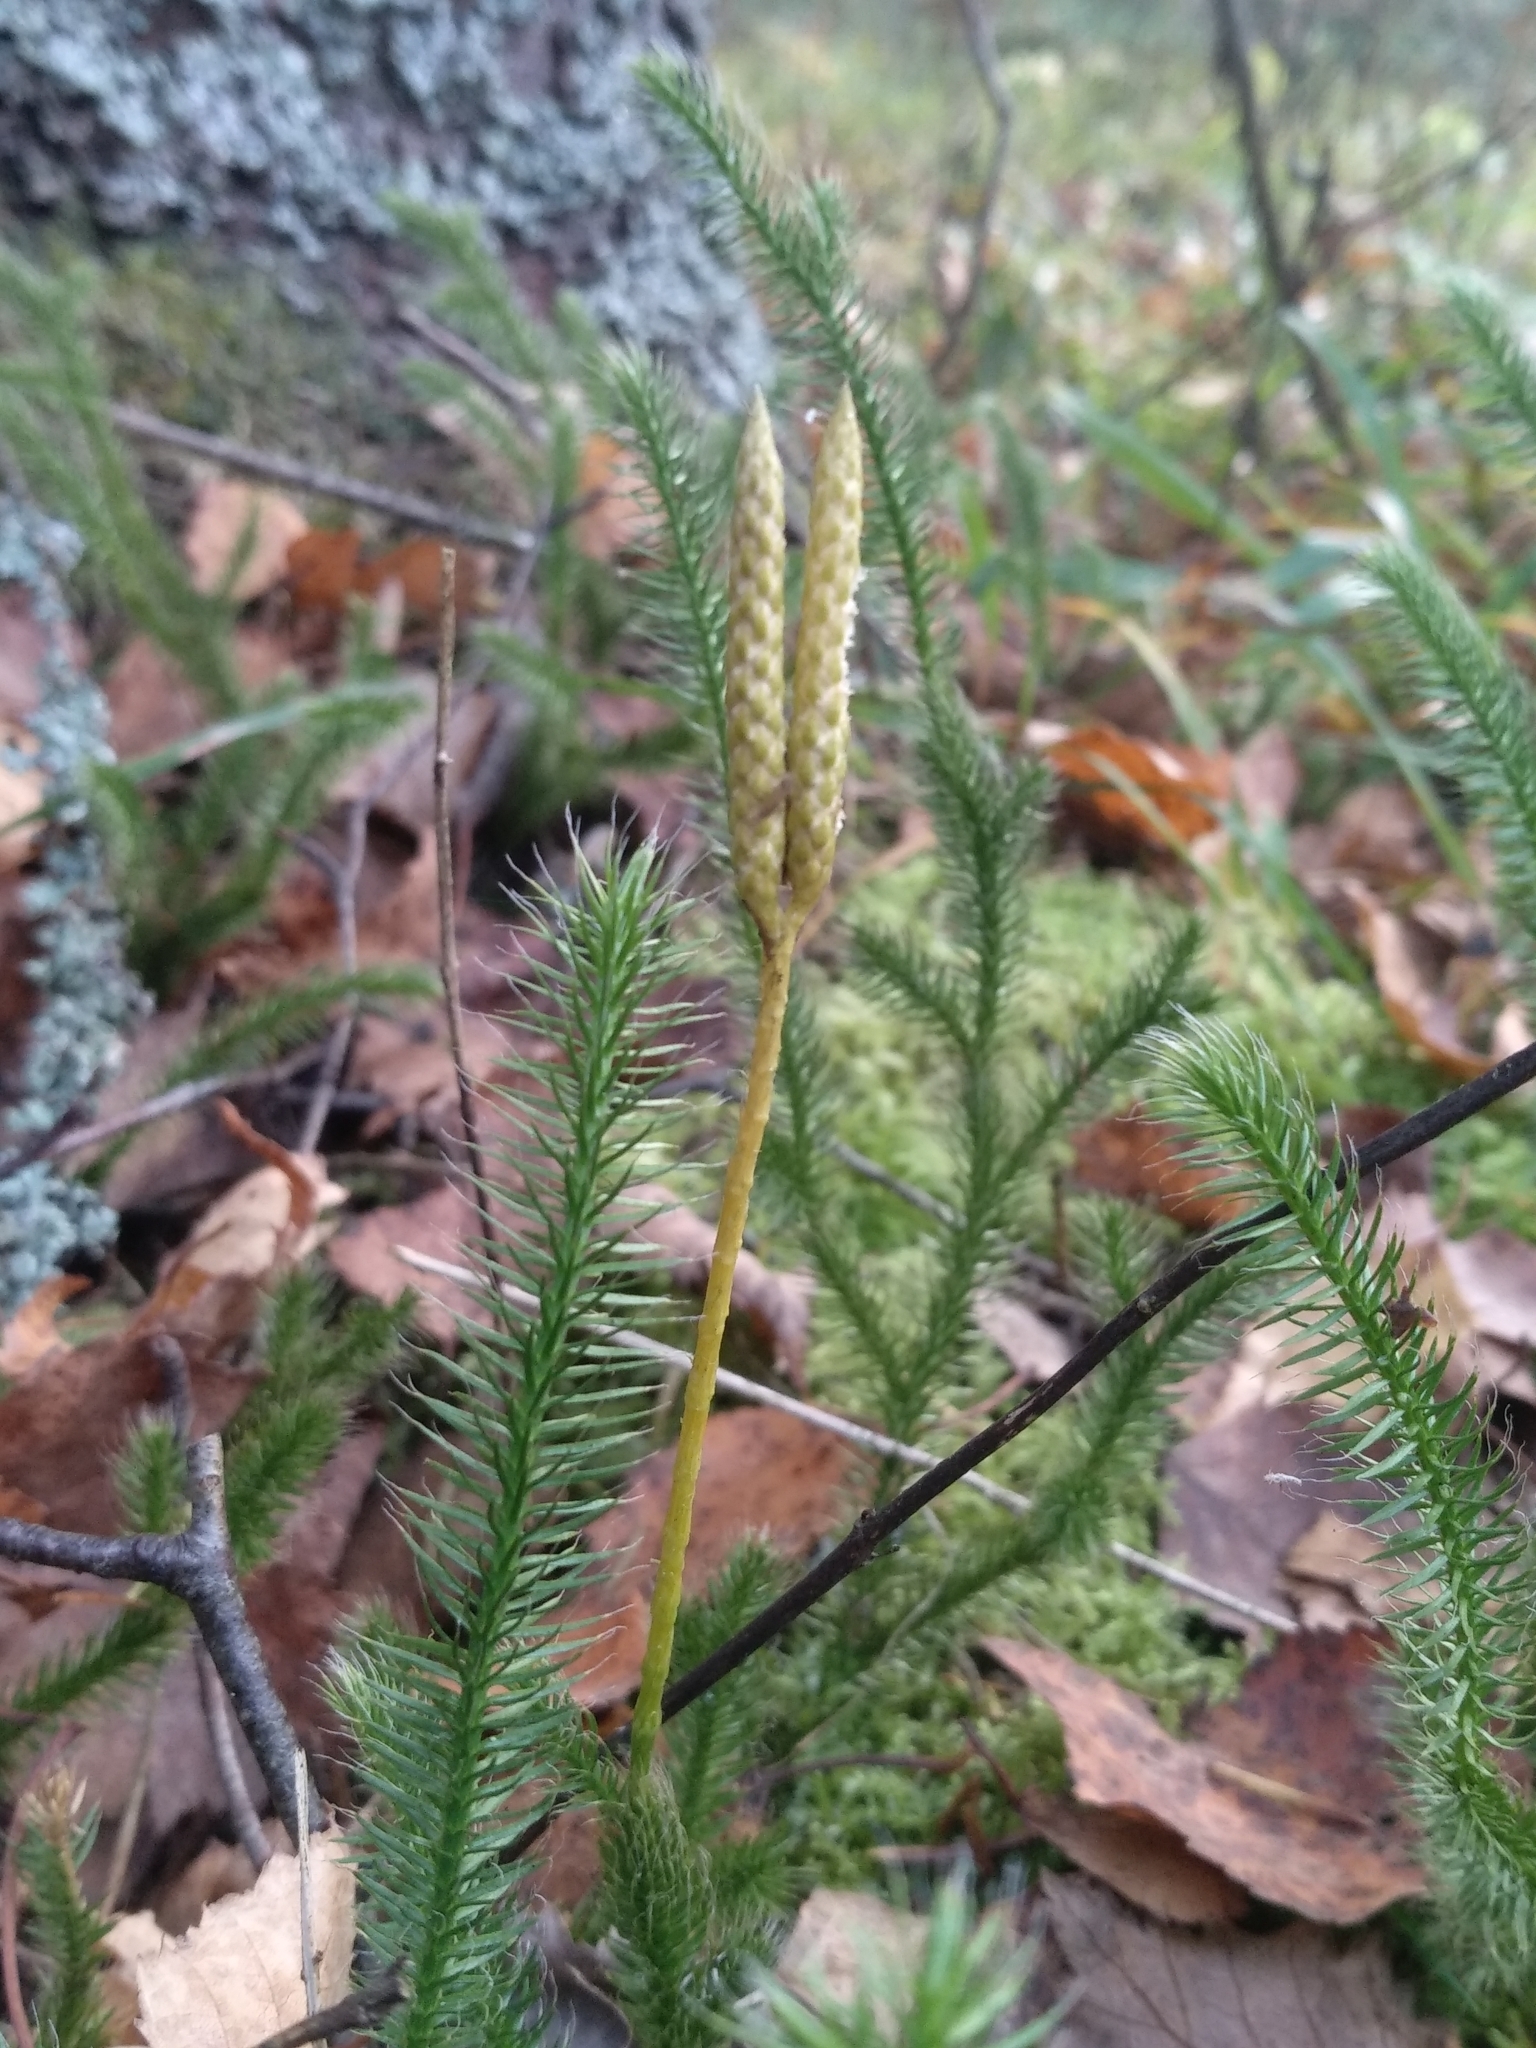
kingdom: Plantae
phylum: Tracheophyta
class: Lycopodiopsida
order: Lycopodiales
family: Lycopodiaceae
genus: Lycopodium
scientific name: Lycopodium clavatum
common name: Stag's-horn clubmoss
